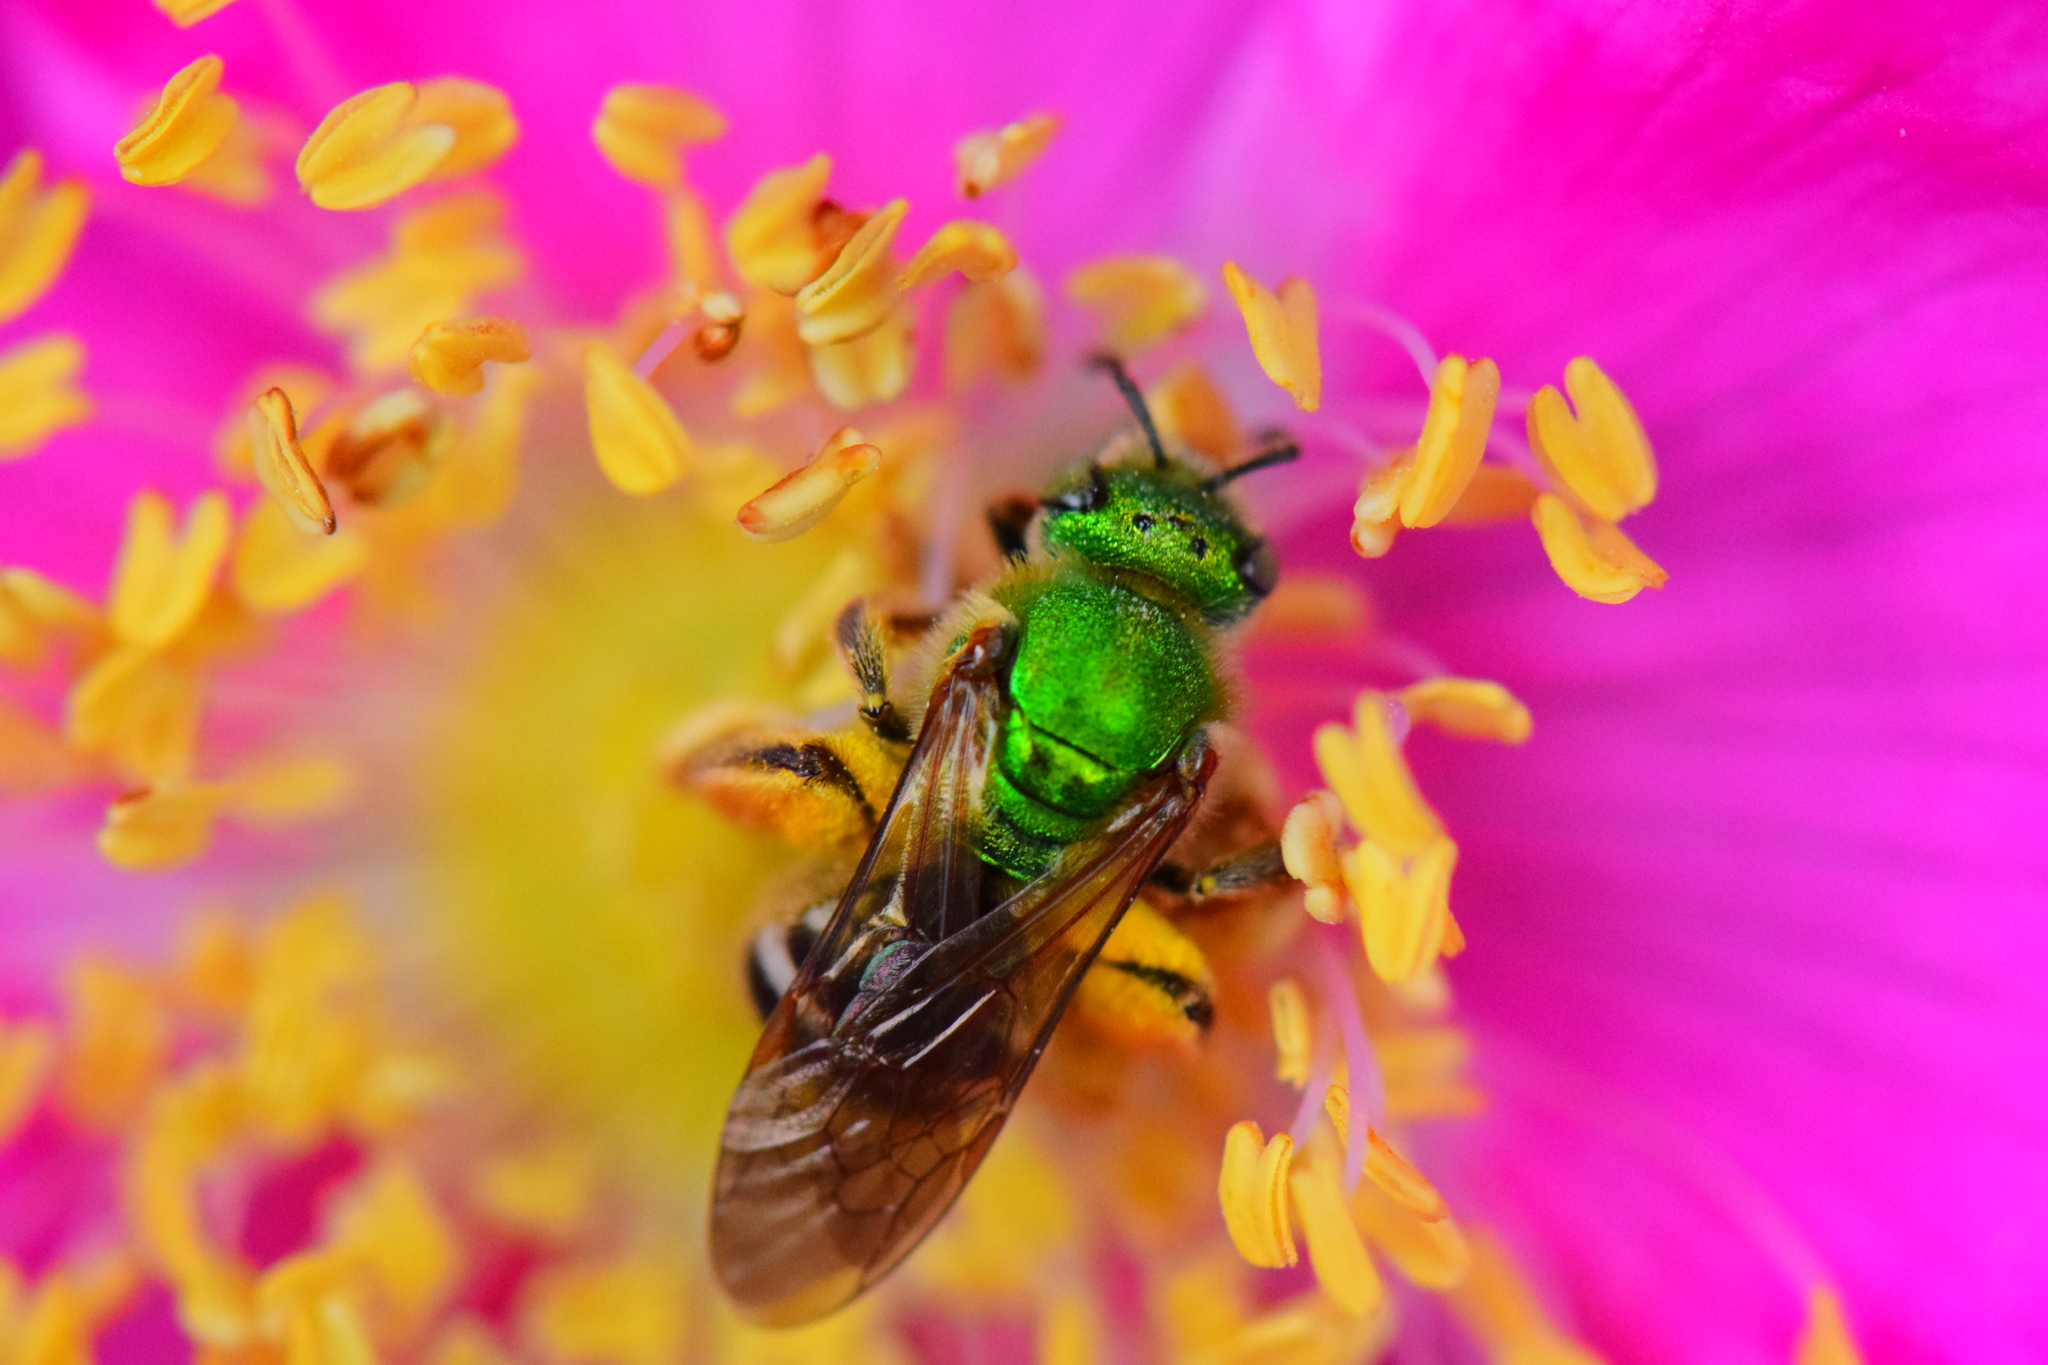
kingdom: Animalia
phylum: Arthropoda
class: Insecta
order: Hymenoptera
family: Halictidae
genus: Agapostemon
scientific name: Agapostemon virescens
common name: Bicolored striped sweat bee
